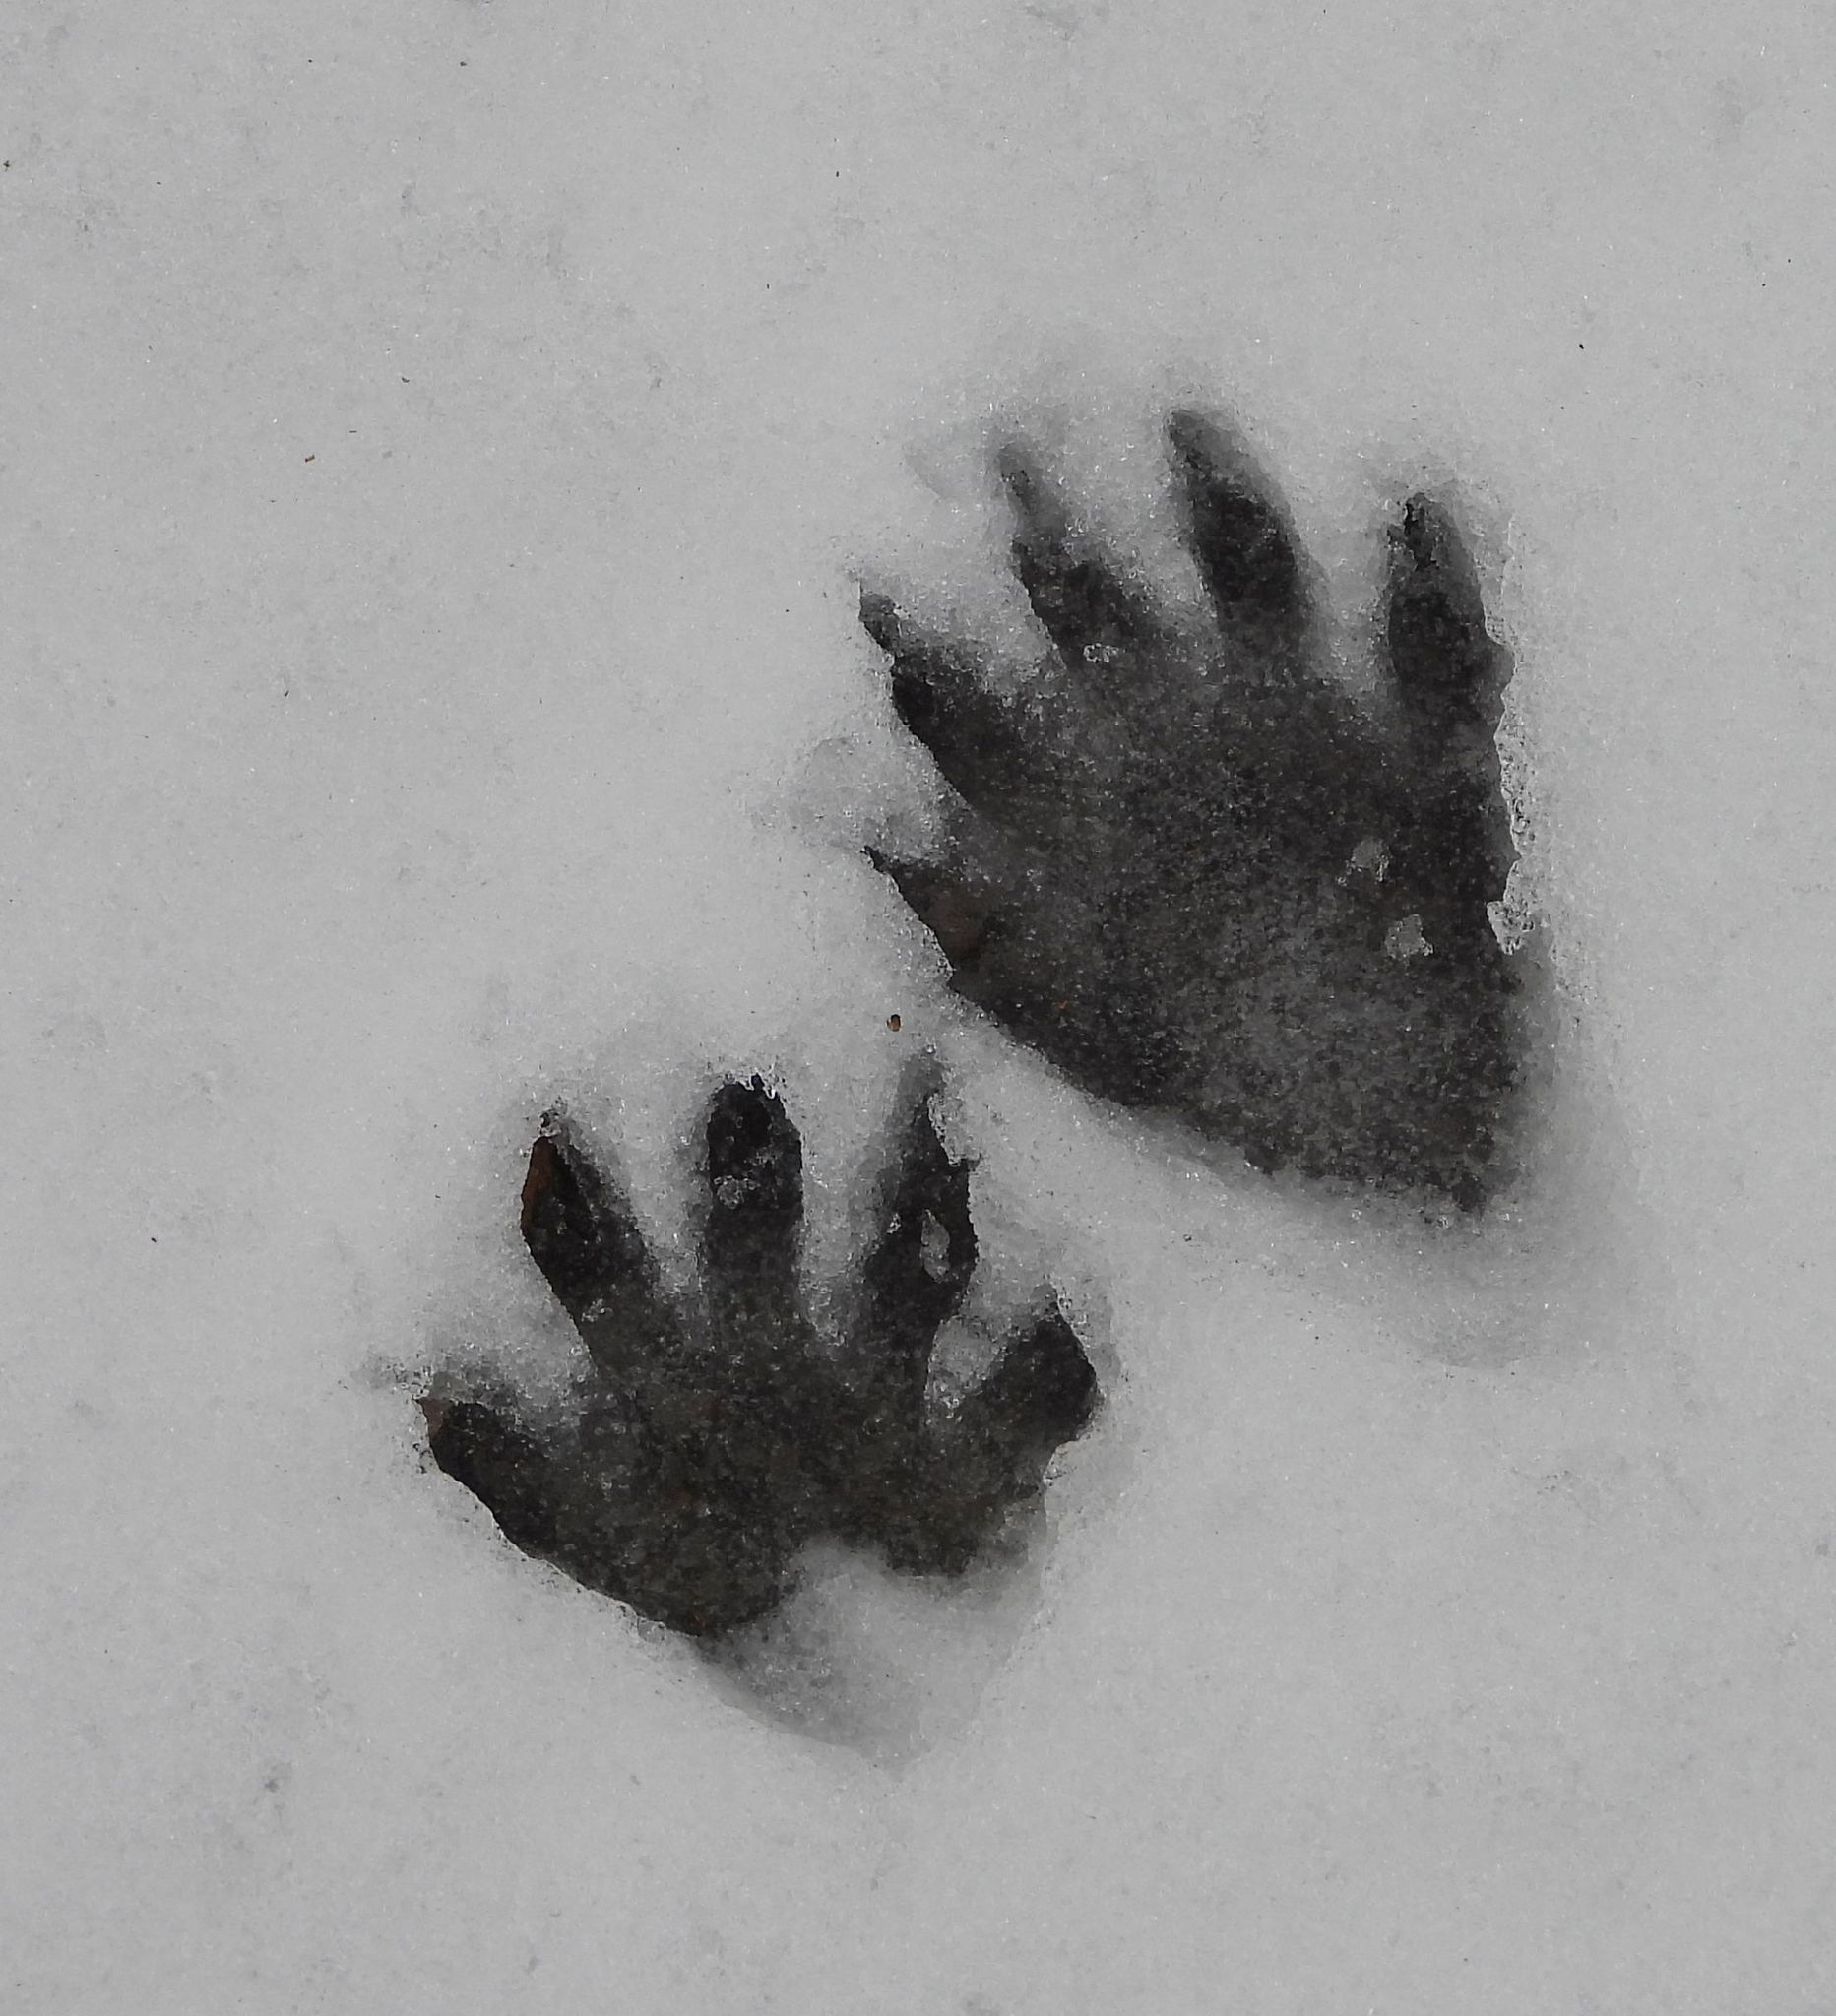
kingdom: Animalia
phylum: Chordata
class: Mammalia
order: Carnivora
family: Procyonidae
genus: Procyon
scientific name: Procyon lotor
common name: Raccoon
